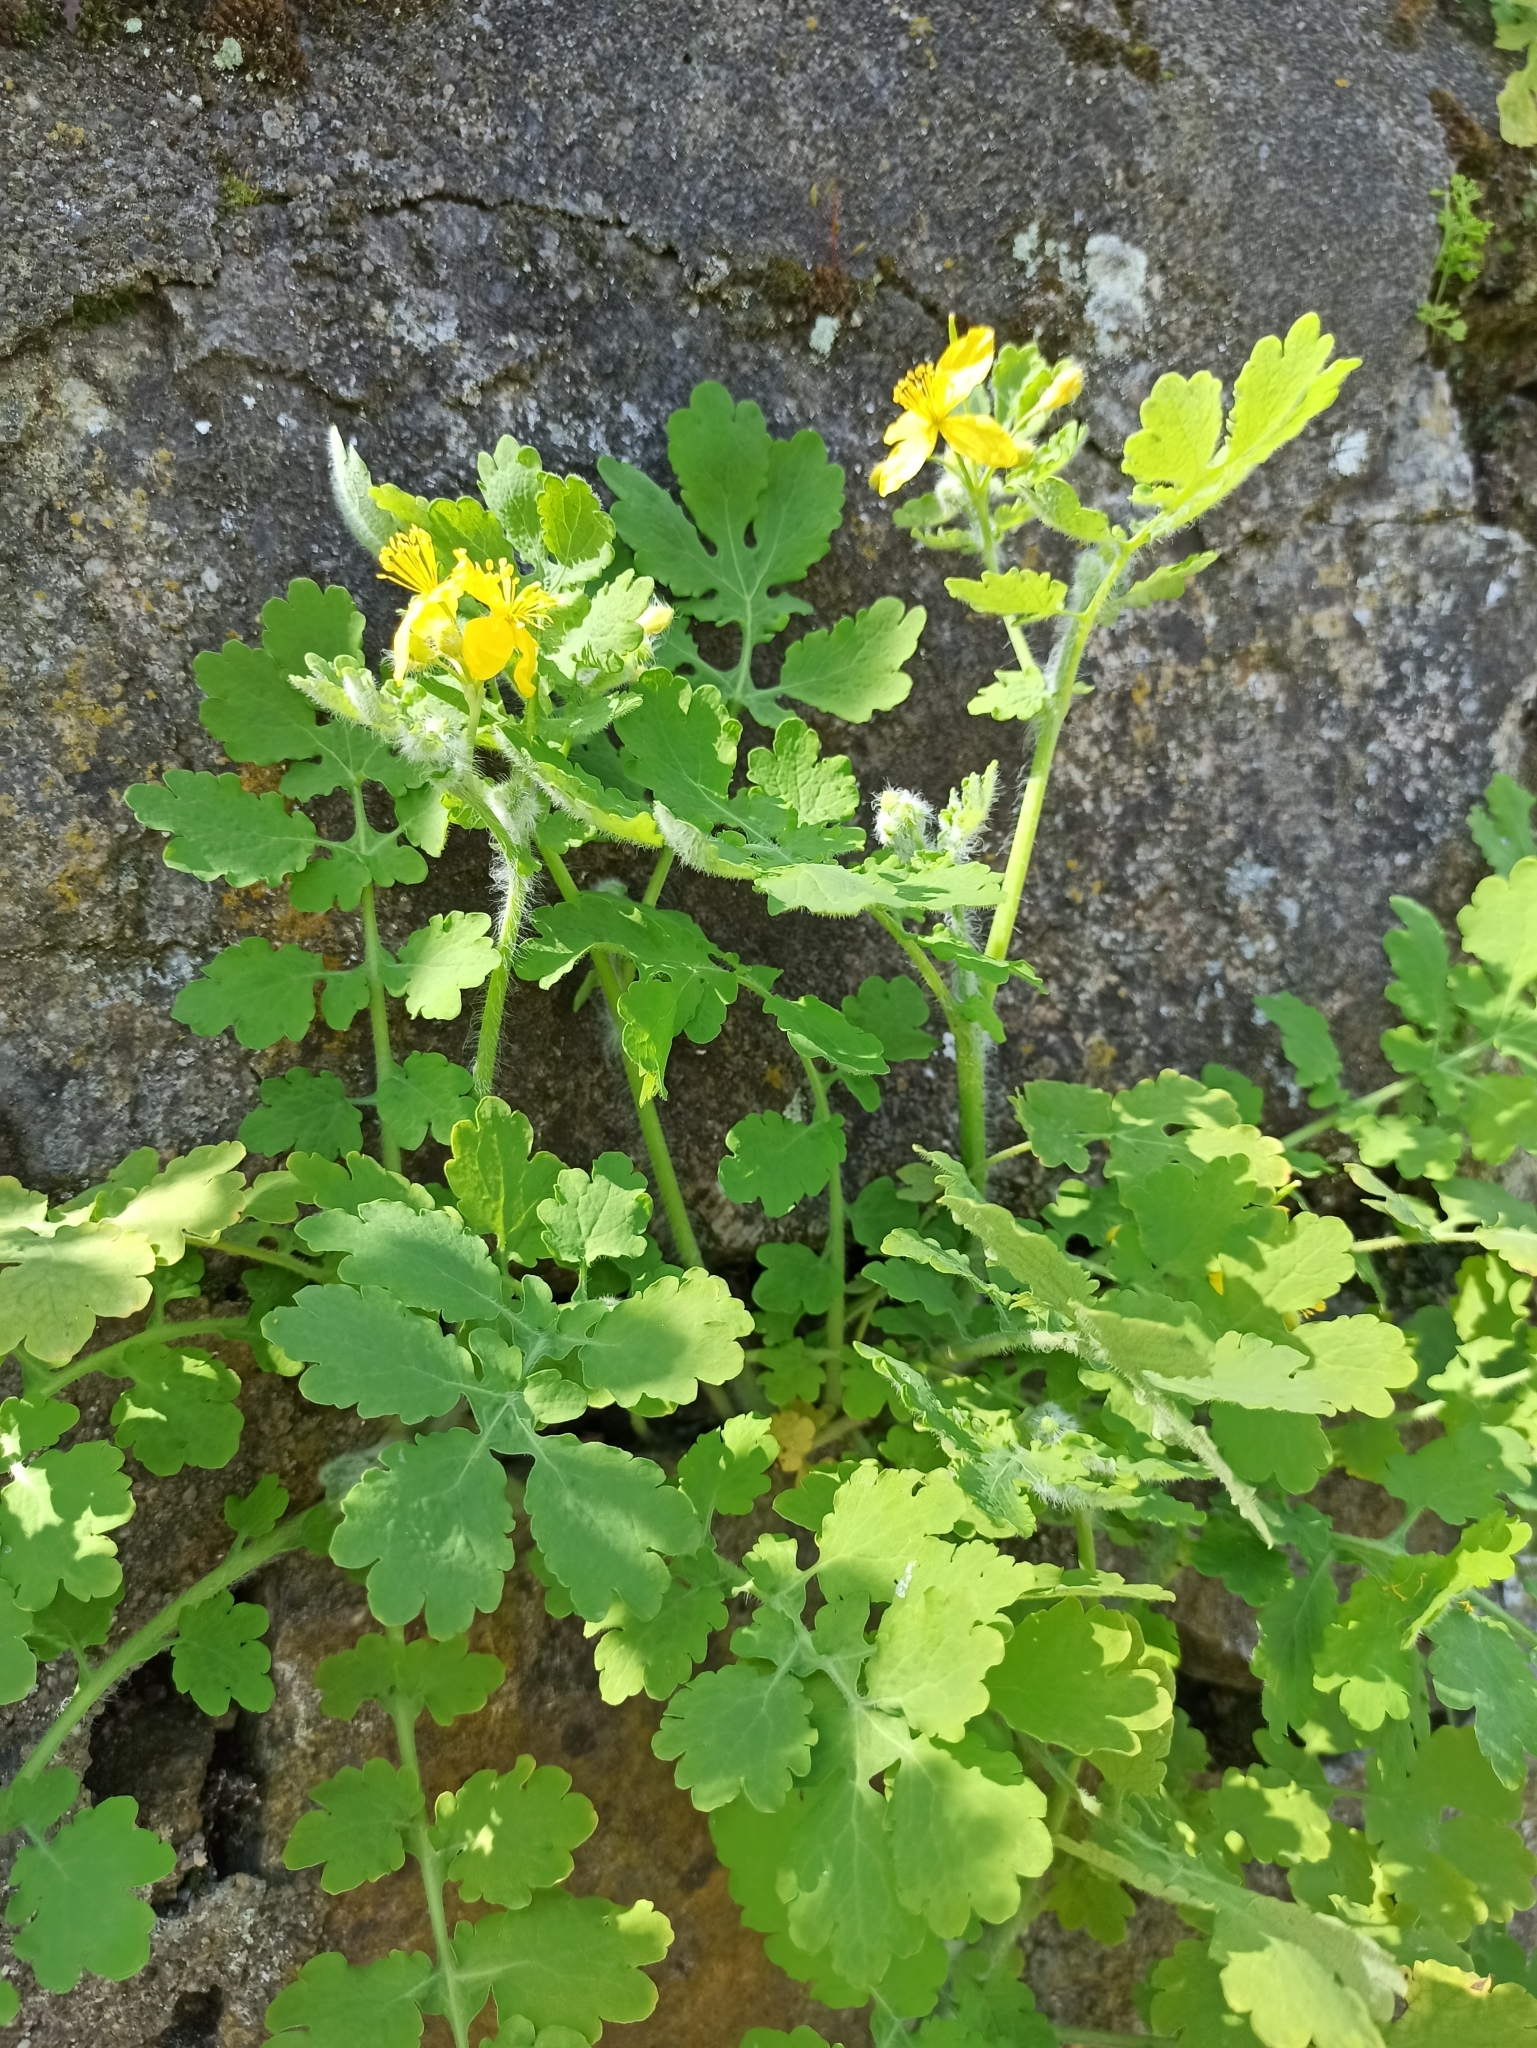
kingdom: Plantae
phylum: Tracheophyta
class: Magnoliopsida
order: Ranunculales
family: Papaveraceae
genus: Chelidonium
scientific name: Chelidonium majus
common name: Greater celandine
